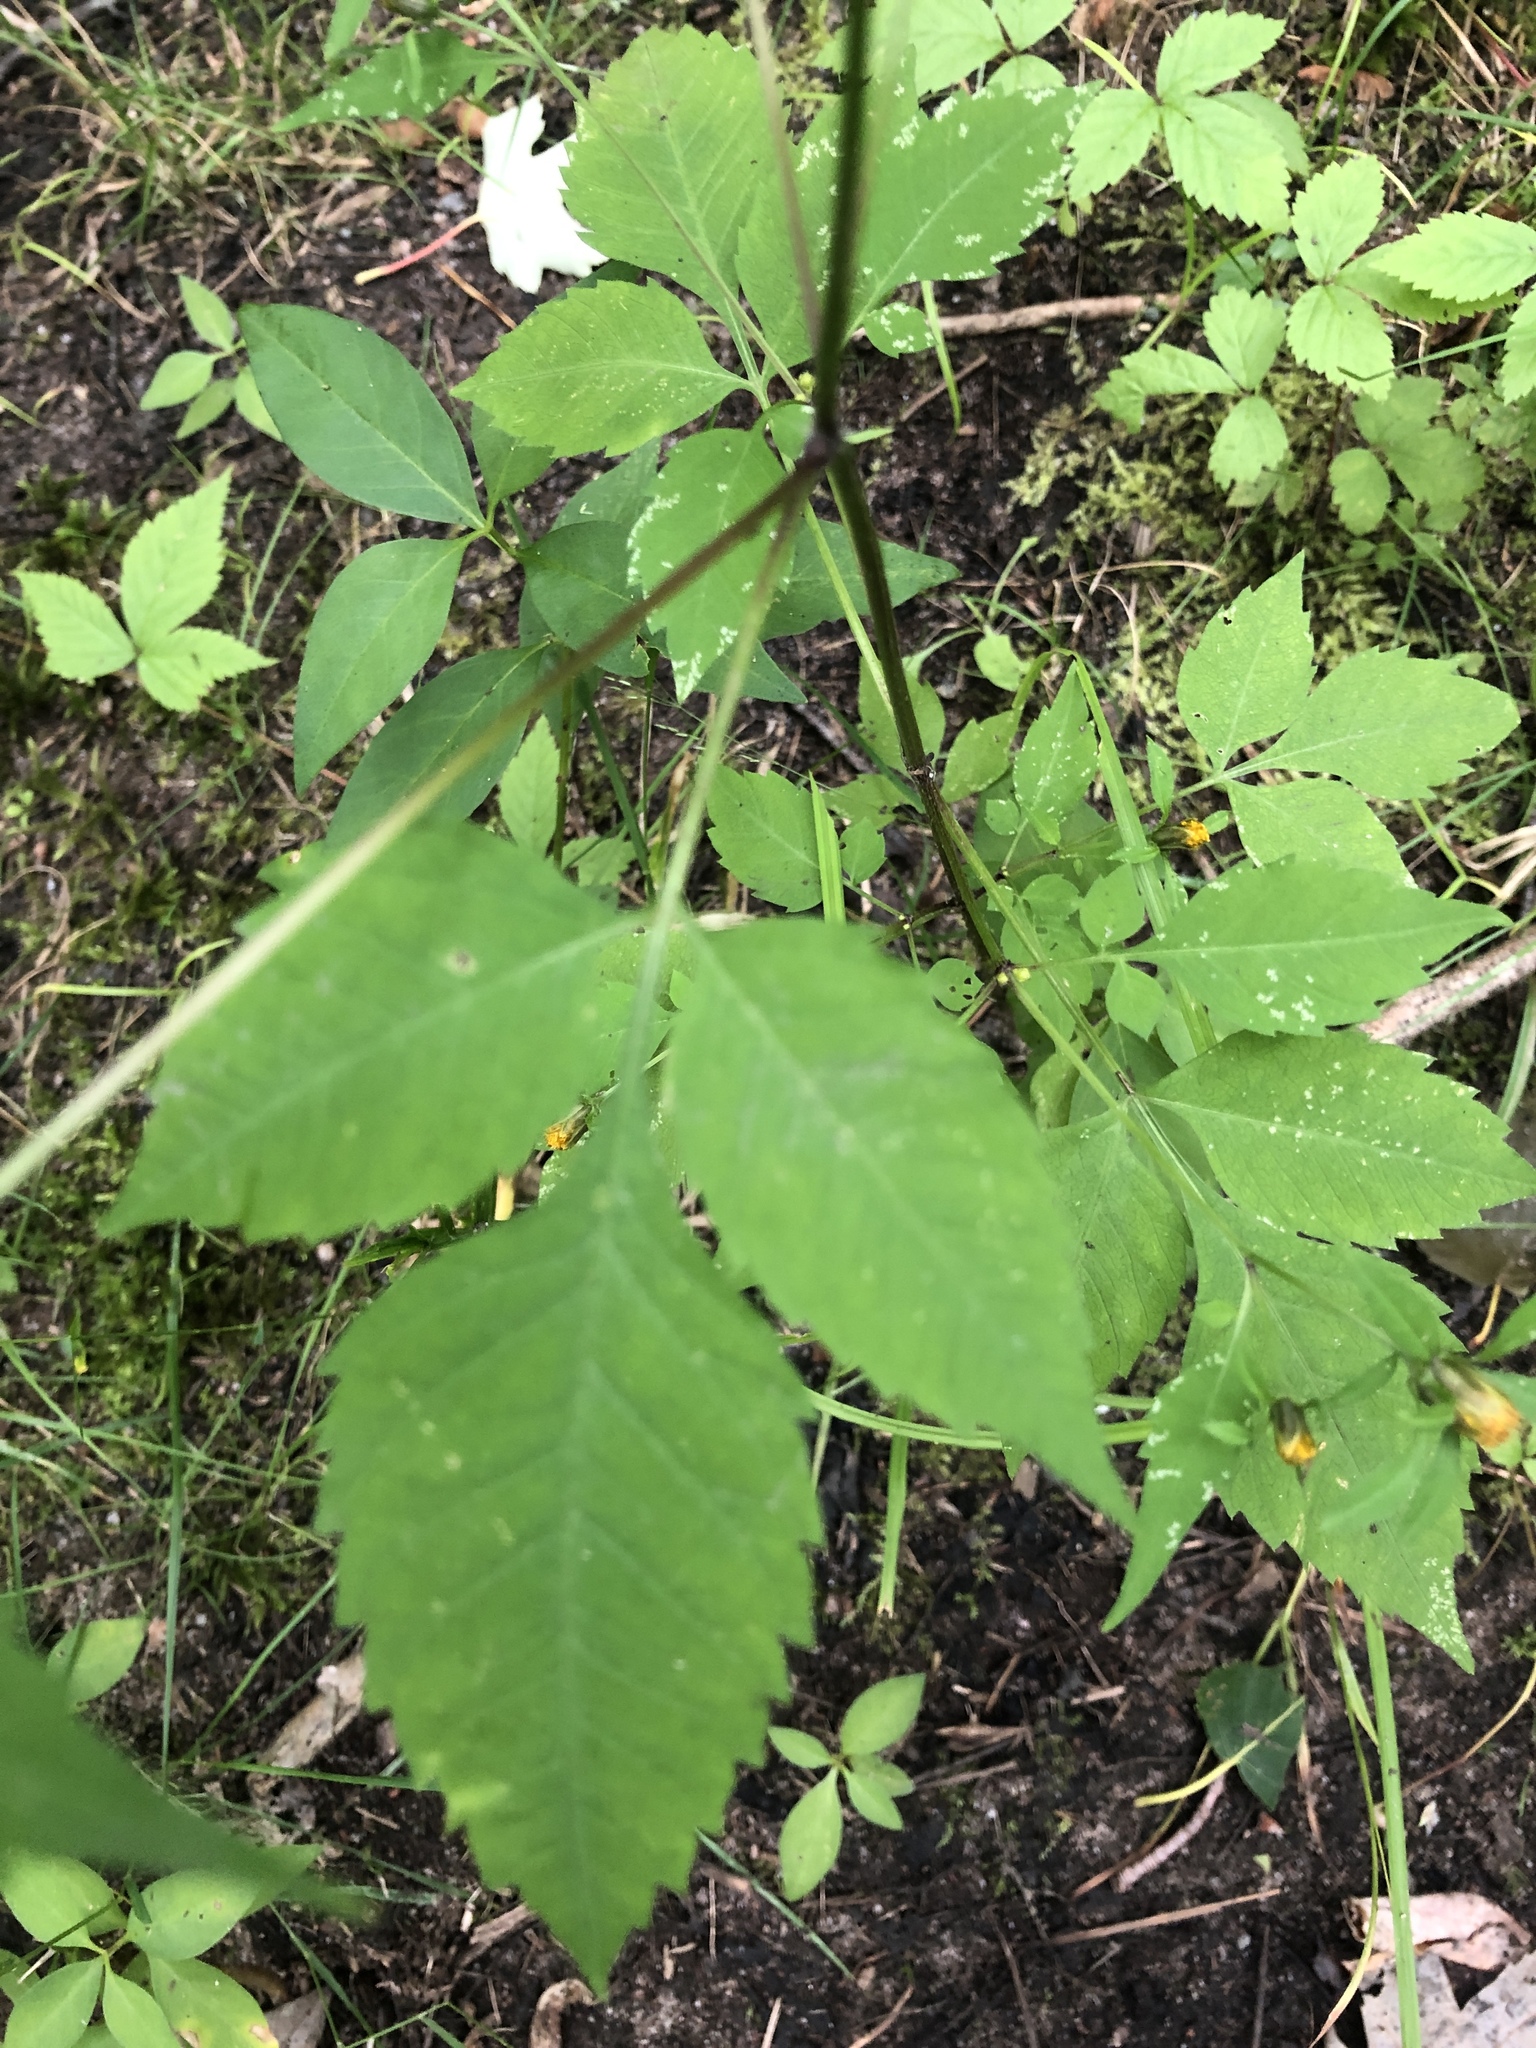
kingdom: Plantae
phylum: Tracheophyta
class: Magnoliopsida
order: Asterales
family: Asteraceae
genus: Bidens
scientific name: Bidens frondosa
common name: Beggarticks
